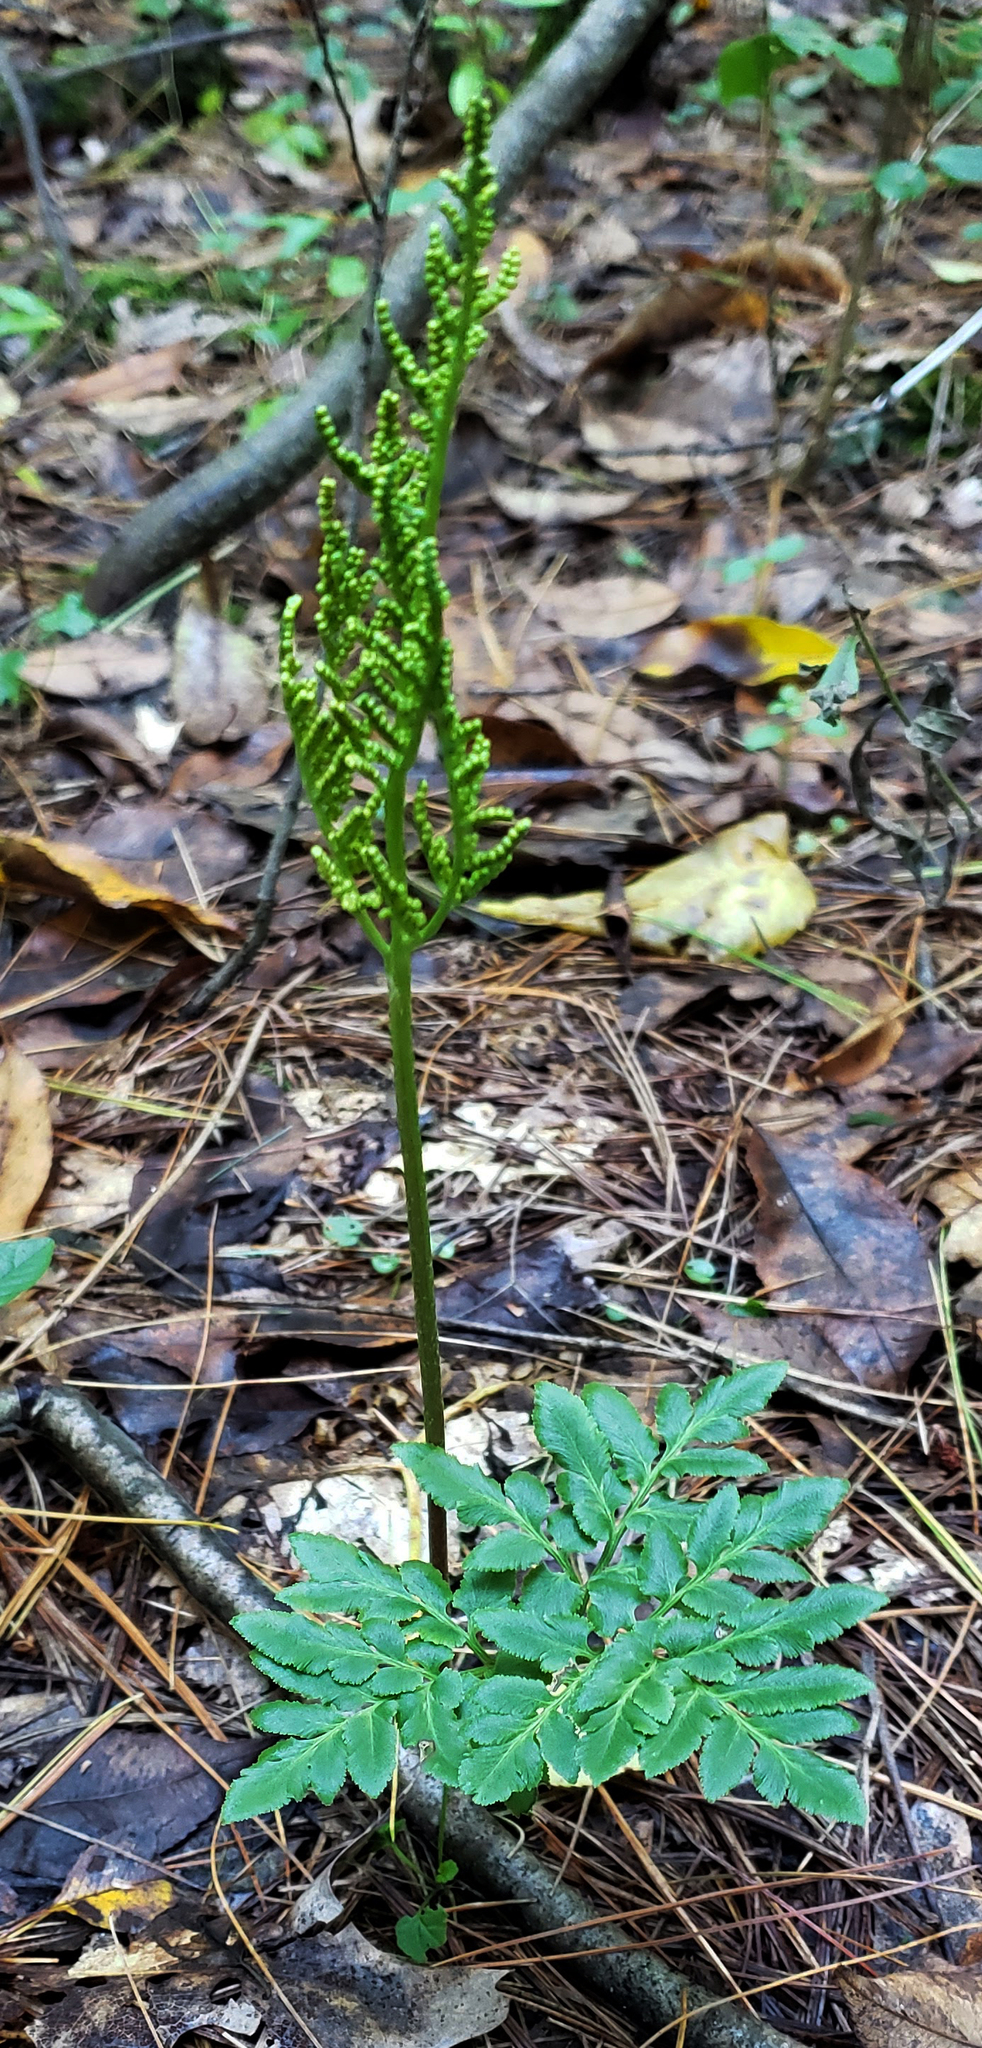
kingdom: Plantae
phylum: Tracheophyta
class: Polypodiopsida
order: Ophioglossales
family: Ophioglossaceae
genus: Sceptridium
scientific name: Sceptridium dissectum
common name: Cut-leaved grapefern
